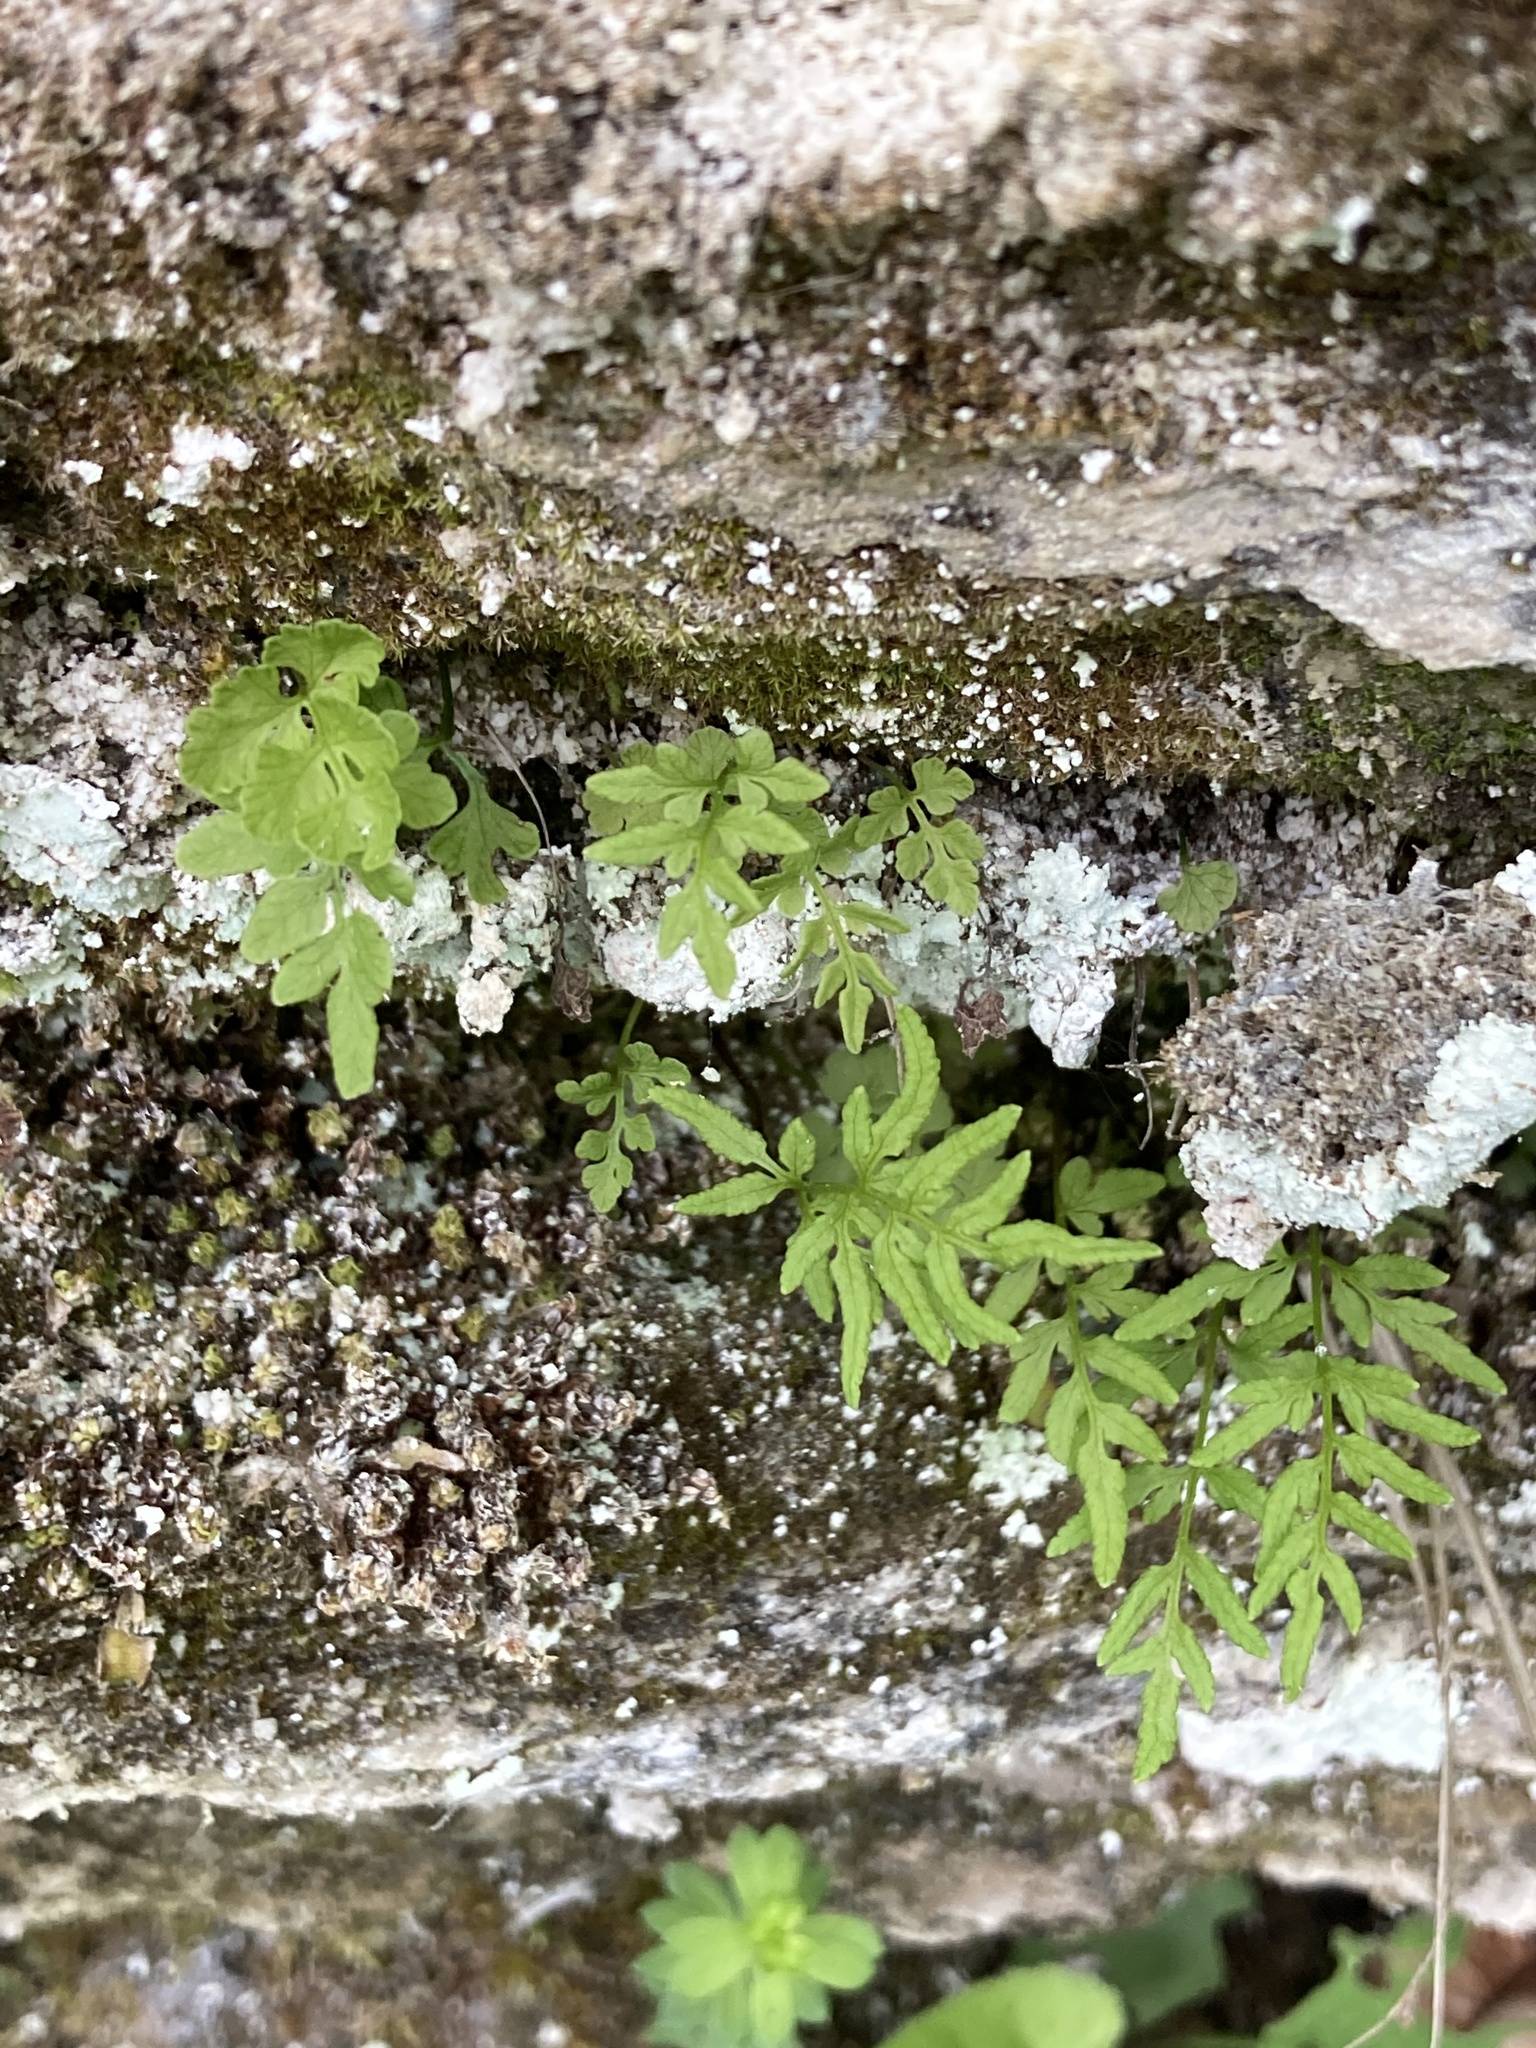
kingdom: Plantae
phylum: Tracheophyta
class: Polypodiopsida
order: Polypodiales
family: Pteridaceae
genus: Cryptogramma
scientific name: Cryptogramma stelleri
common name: Cliff-brake
